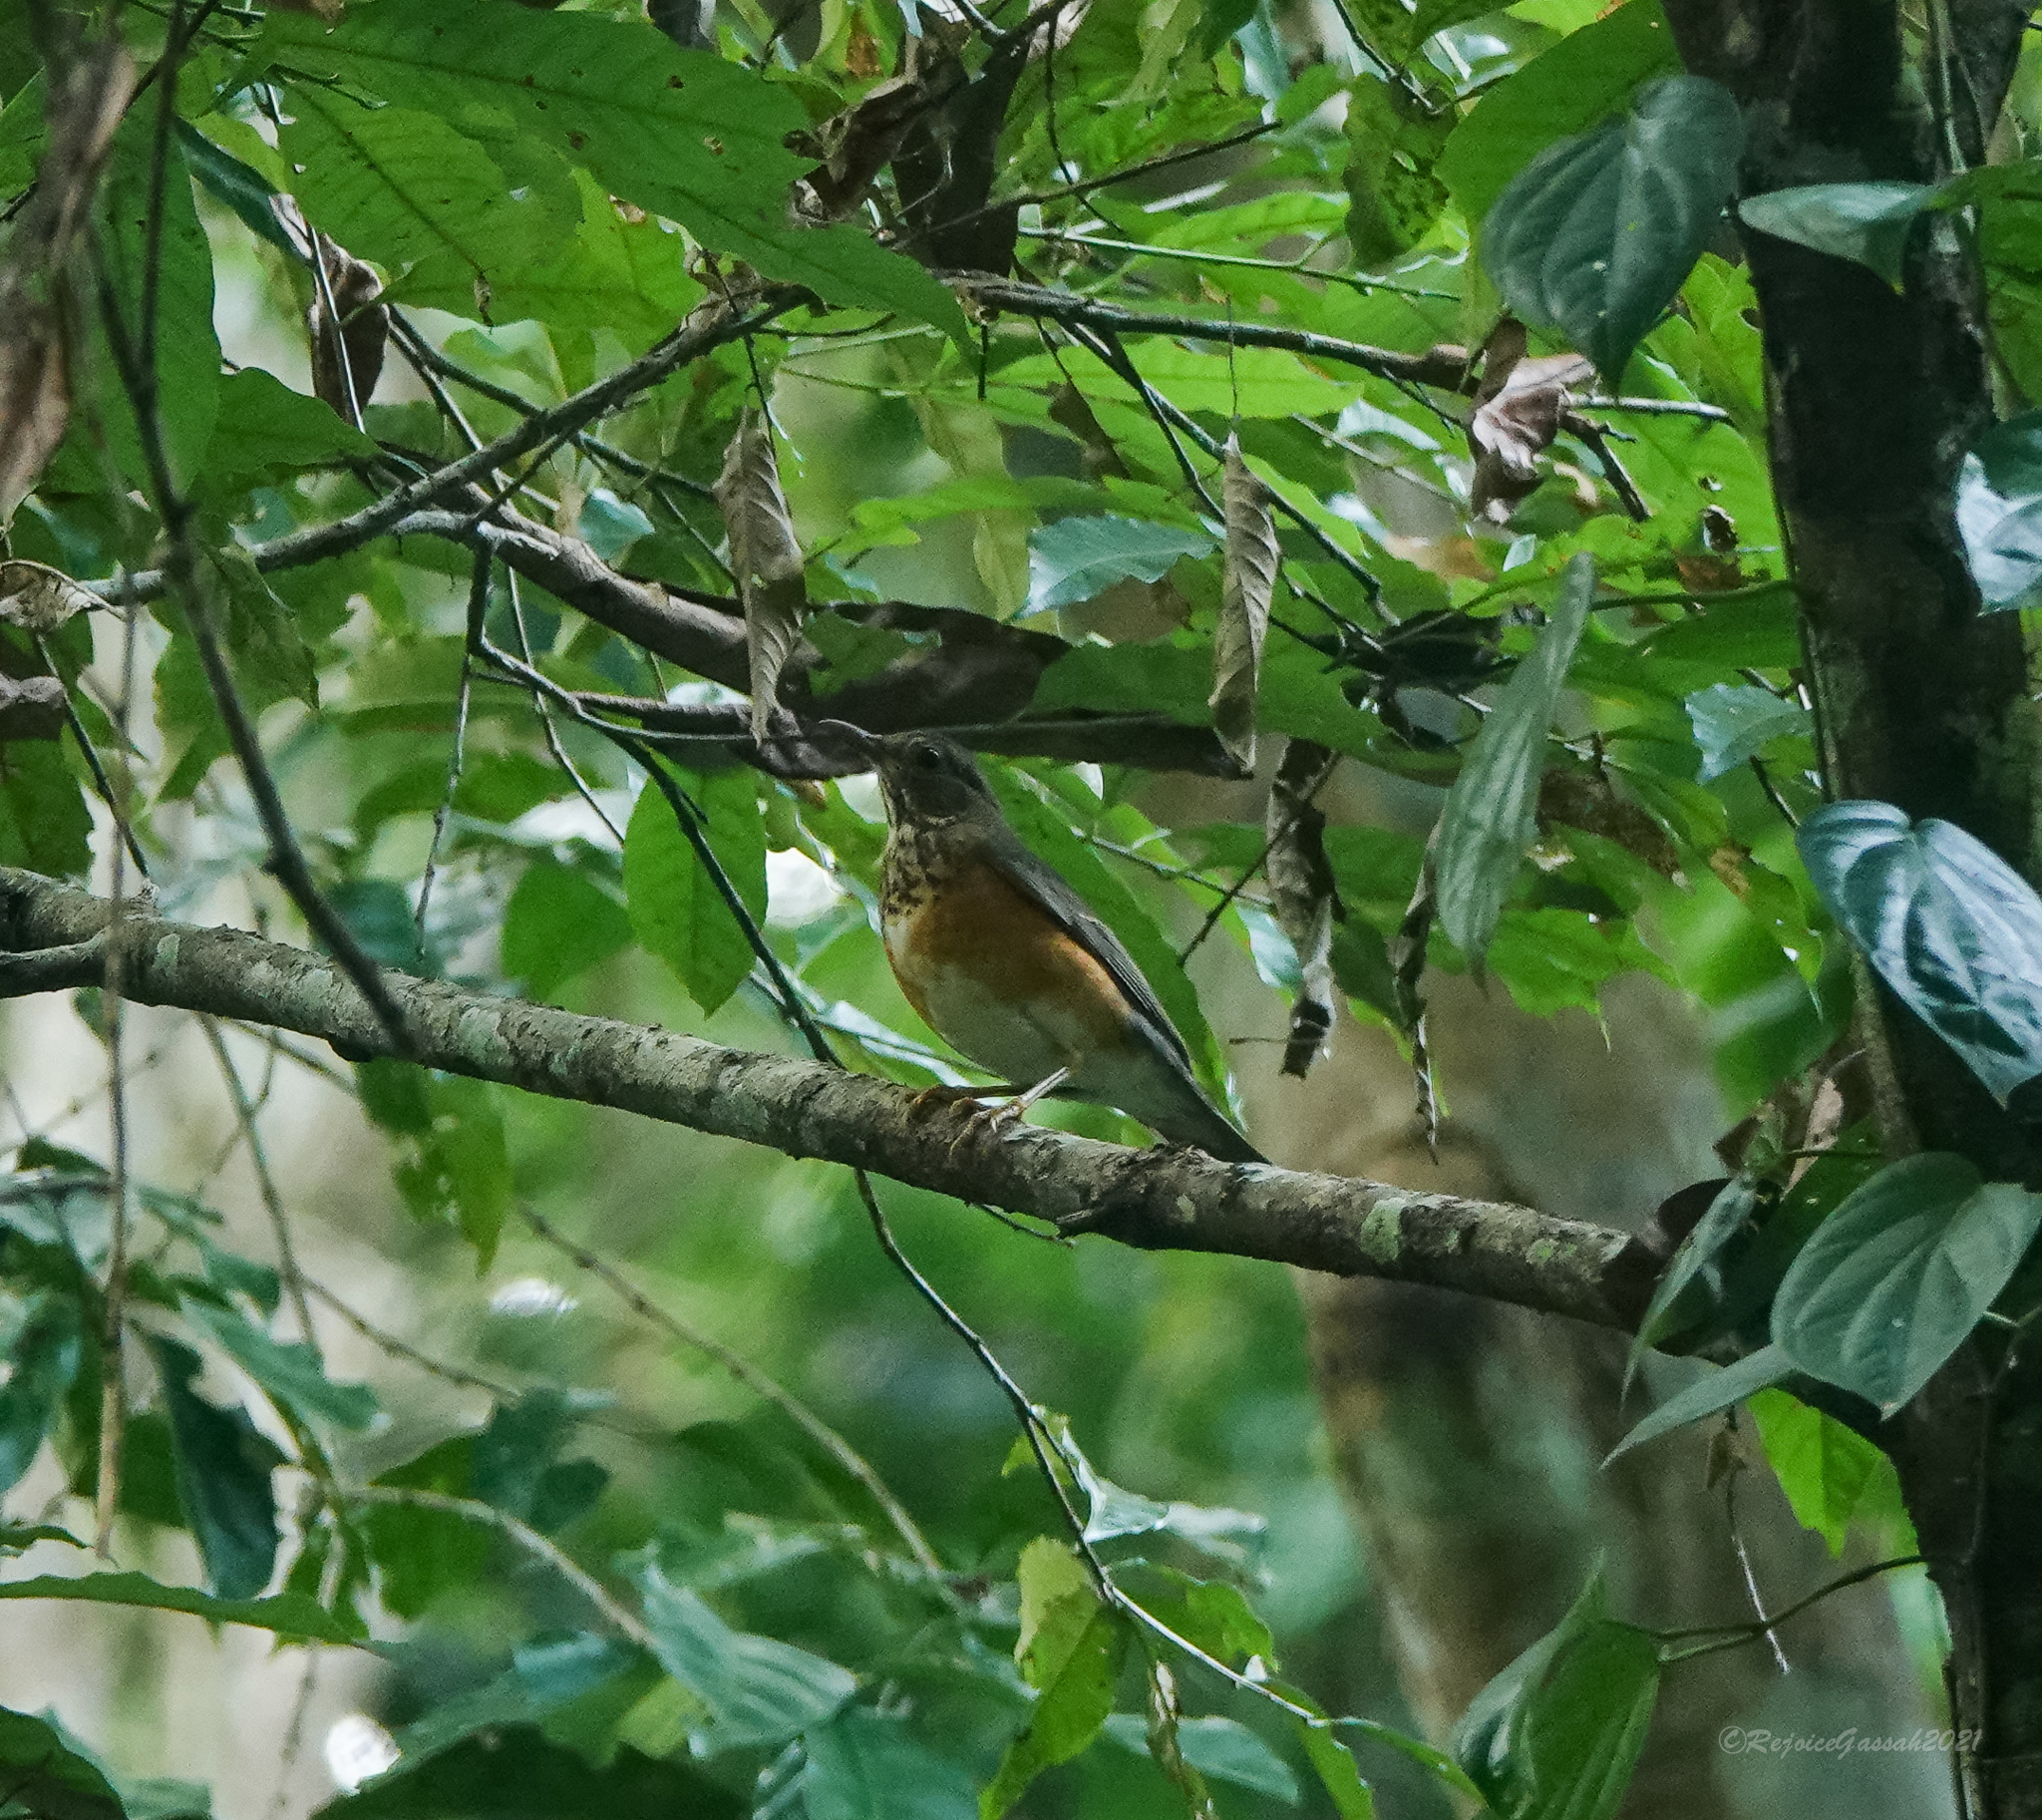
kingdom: Animalia
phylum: Chordata
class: Aves
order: Passeriformes
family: Turdidae
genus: Turdus
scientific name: Turdus dissimilis
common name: Black-breasted thrush
